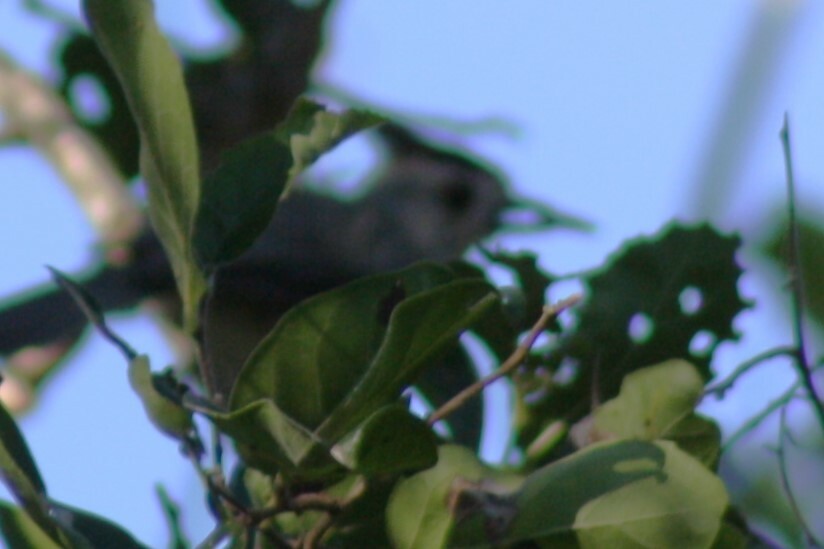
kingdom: Animalia
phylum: Chordata
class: Aves
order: Passeriformes
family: Paridae
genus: Baeolophus
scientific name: Baeolophus atricristatus
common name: Black-crested titmouse
